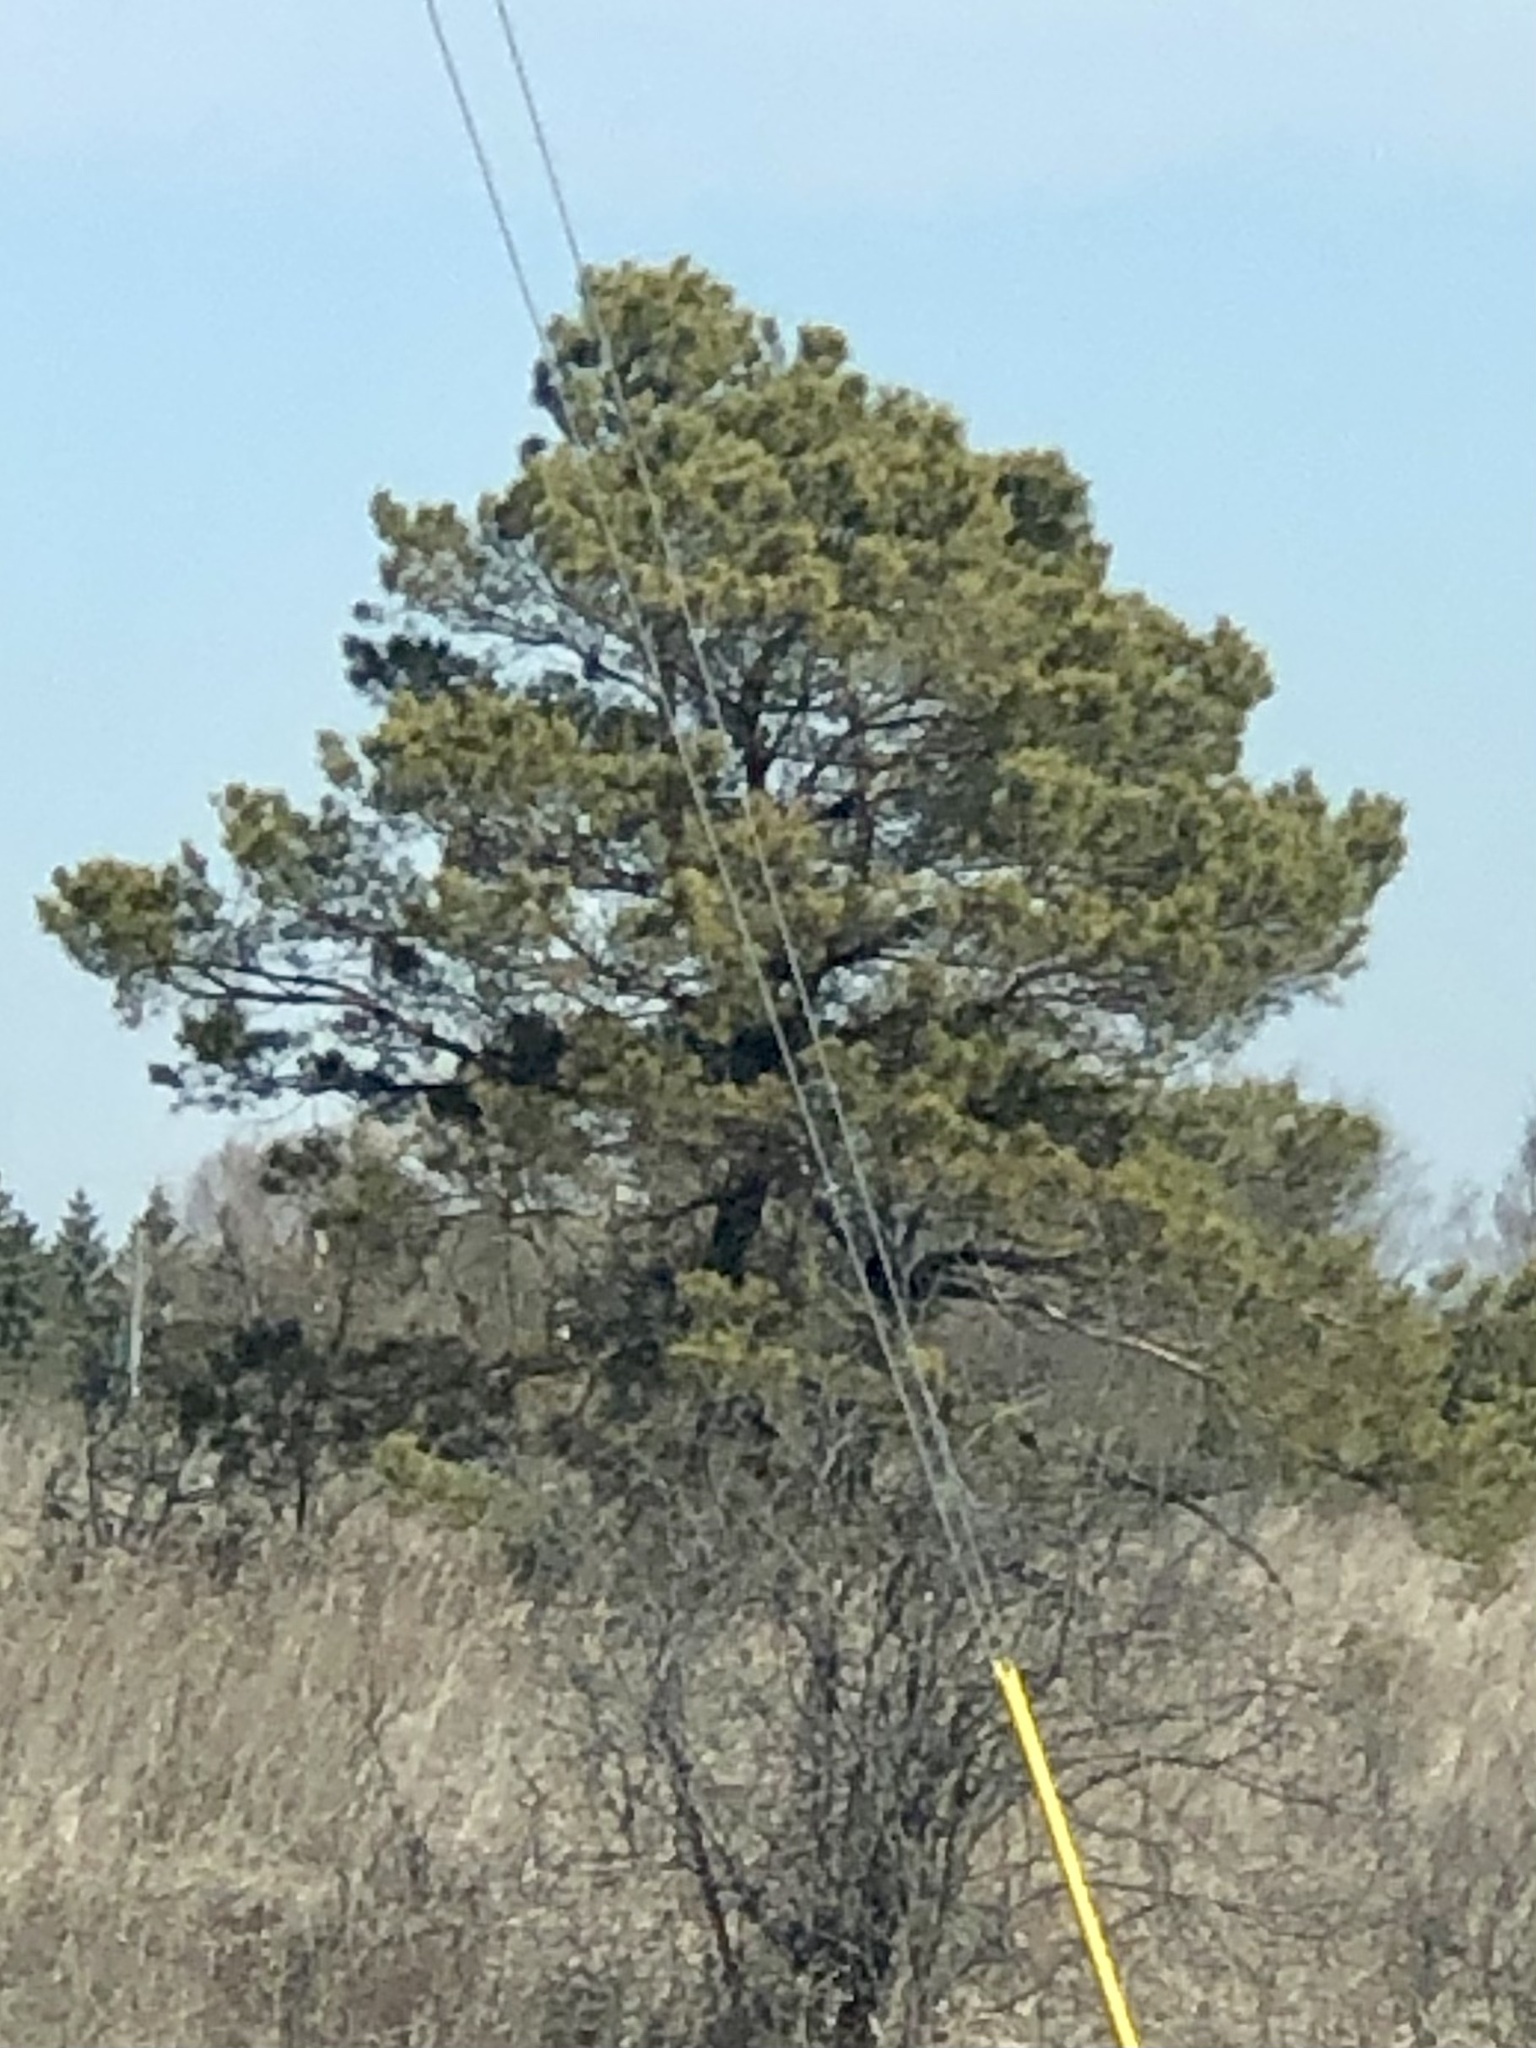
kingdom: Plantae
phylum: Tracheophyta
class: Pinopsida
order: Pinales
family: Pinaceae
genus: Pinus
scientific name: Pinus strobus
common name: Weymouth pine
